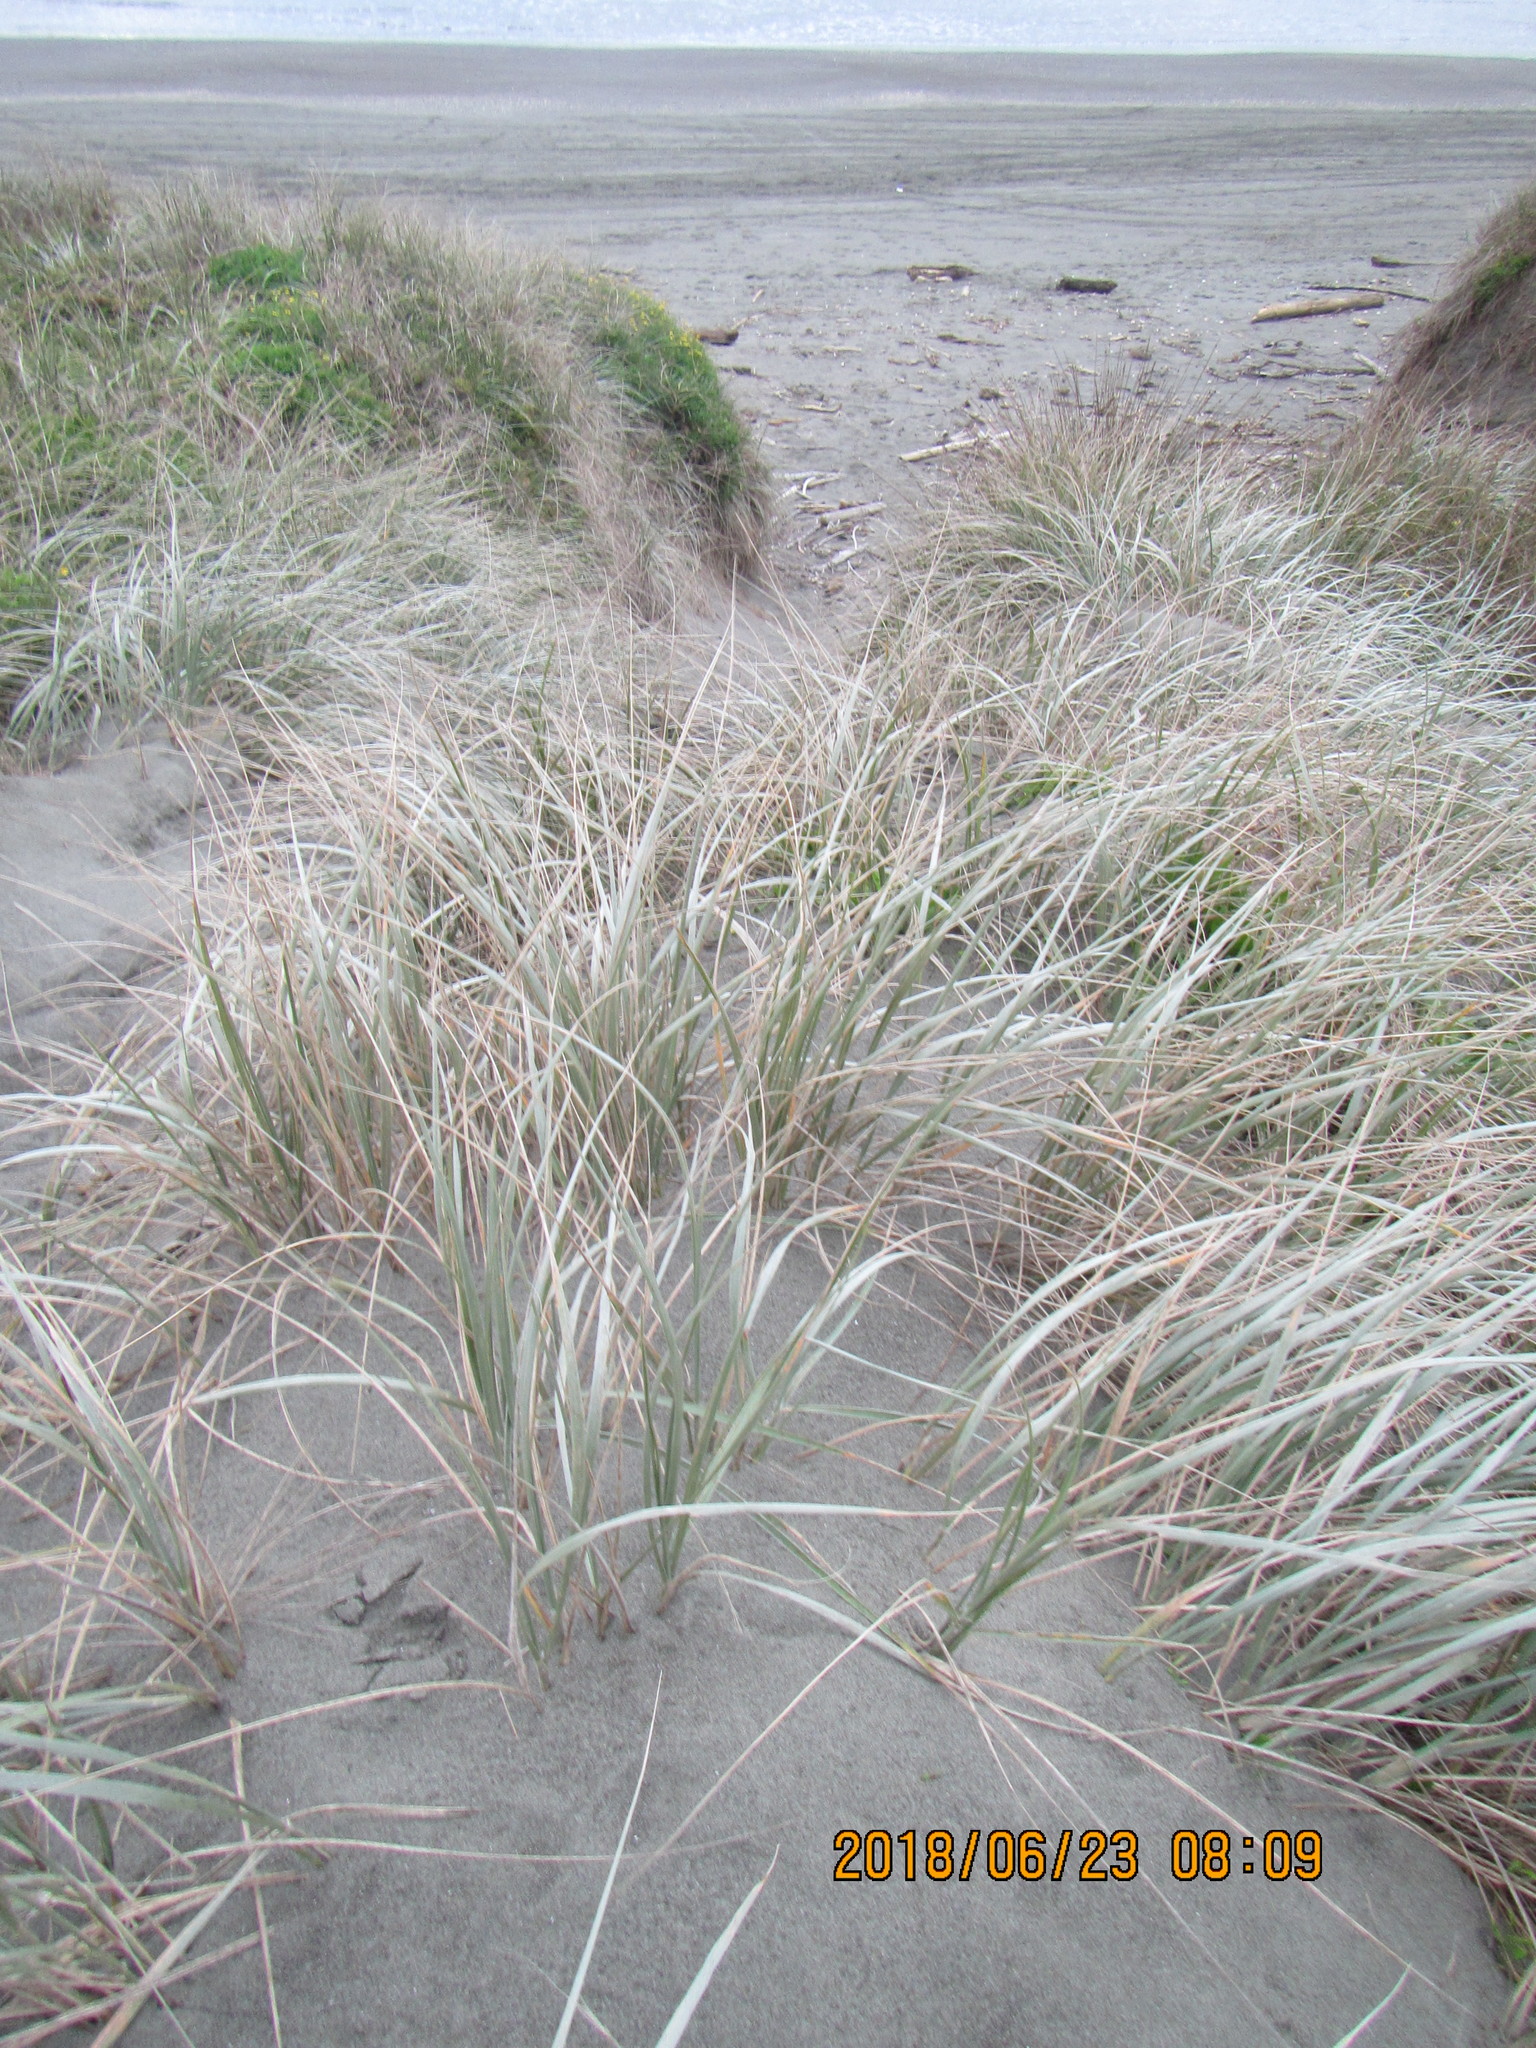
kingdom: Plantae
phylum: Tracheophyta
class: Liliopsida
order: Poales
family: Poaceae
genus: Spinifex
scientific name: Spinifex sericeus
